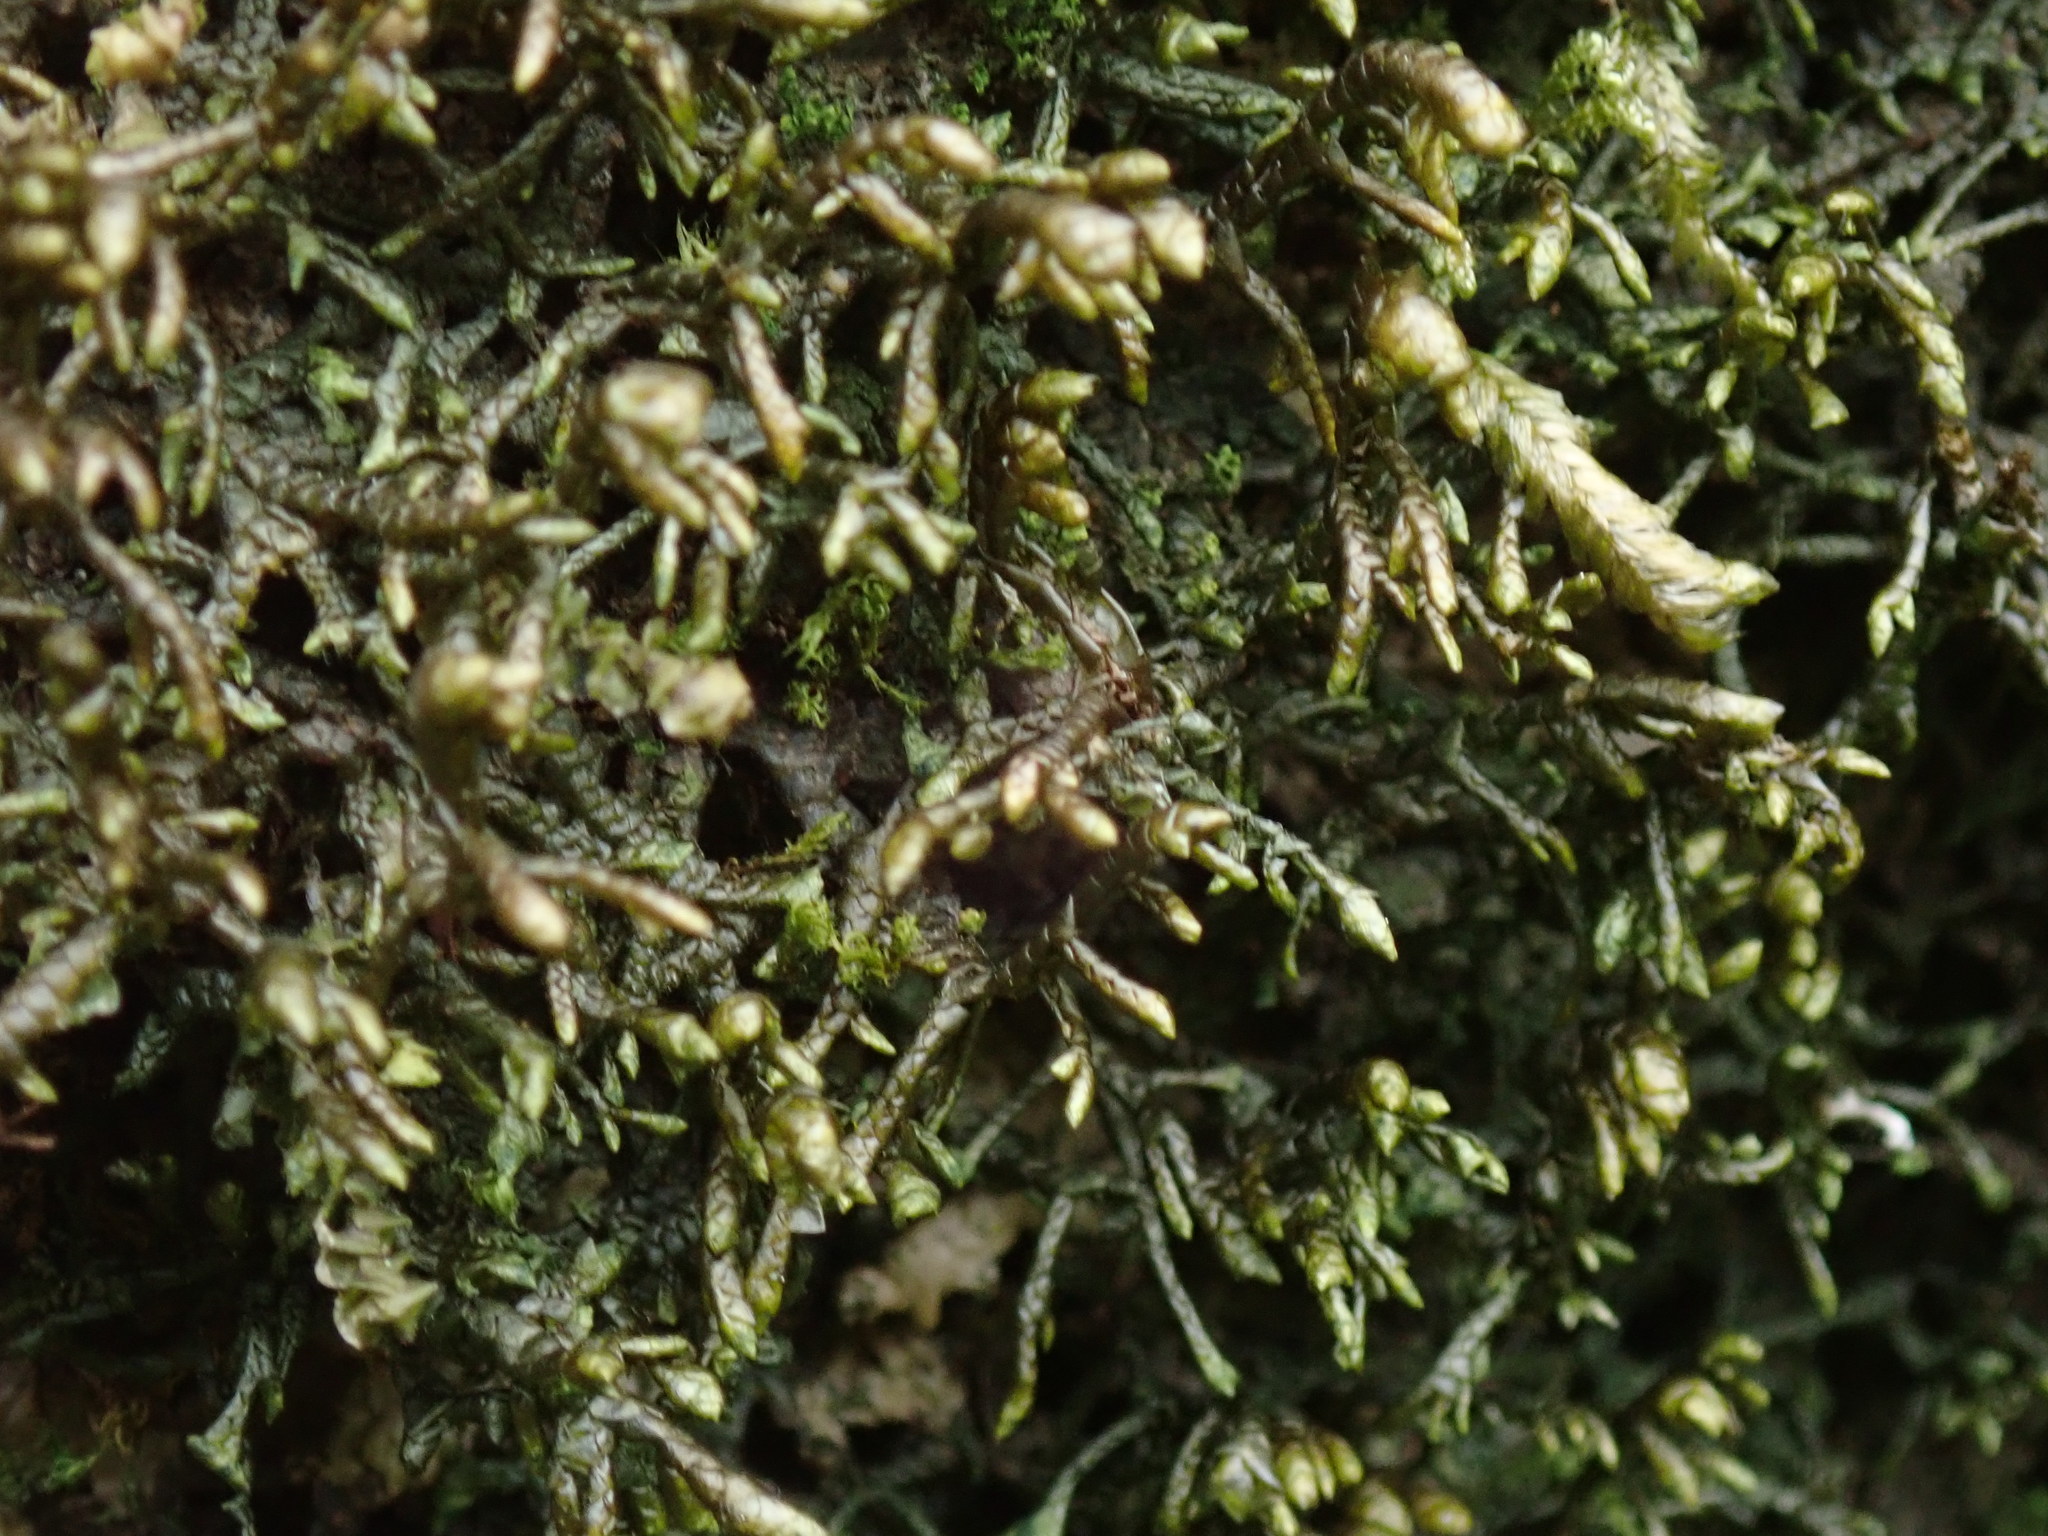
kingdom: Plantae
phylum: Marchantiophyta
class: Jungermanniopsida
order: Porellales
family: Porellaceae
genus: Porella
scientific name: Porella roellii
